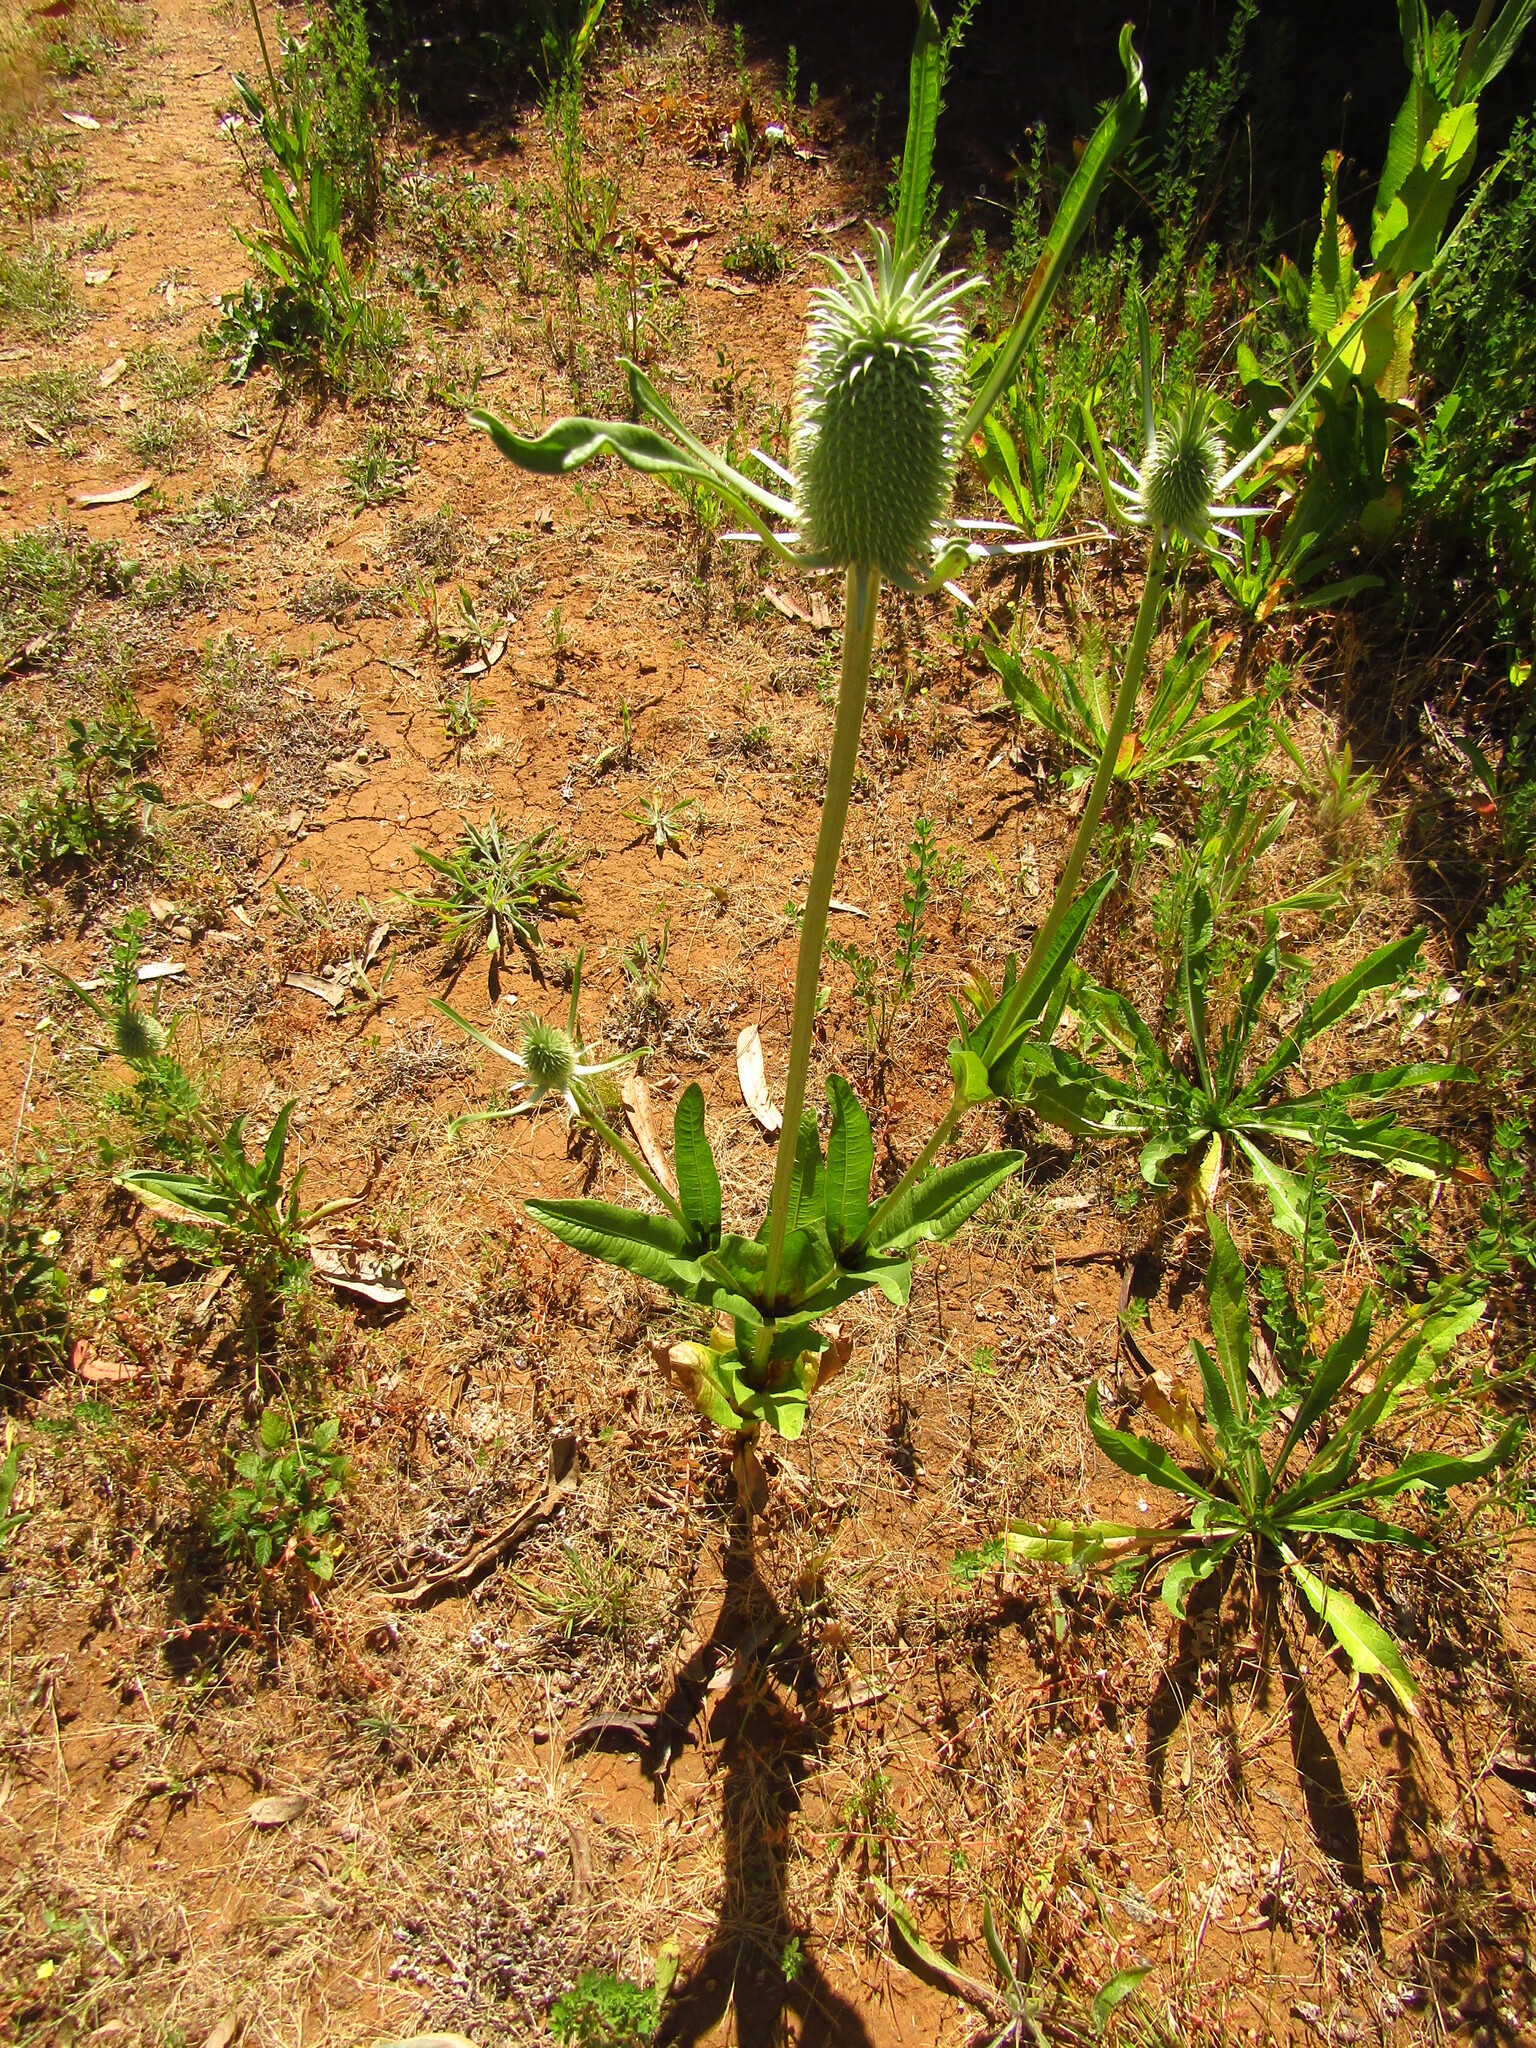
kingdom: Plantae
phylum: Tracheophyta
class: Magnoliopsida
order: Dipsacales
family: Caprifoliaceae
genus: Dipsacus
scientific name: Dipsacus sativus
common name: Fuller's teasel
